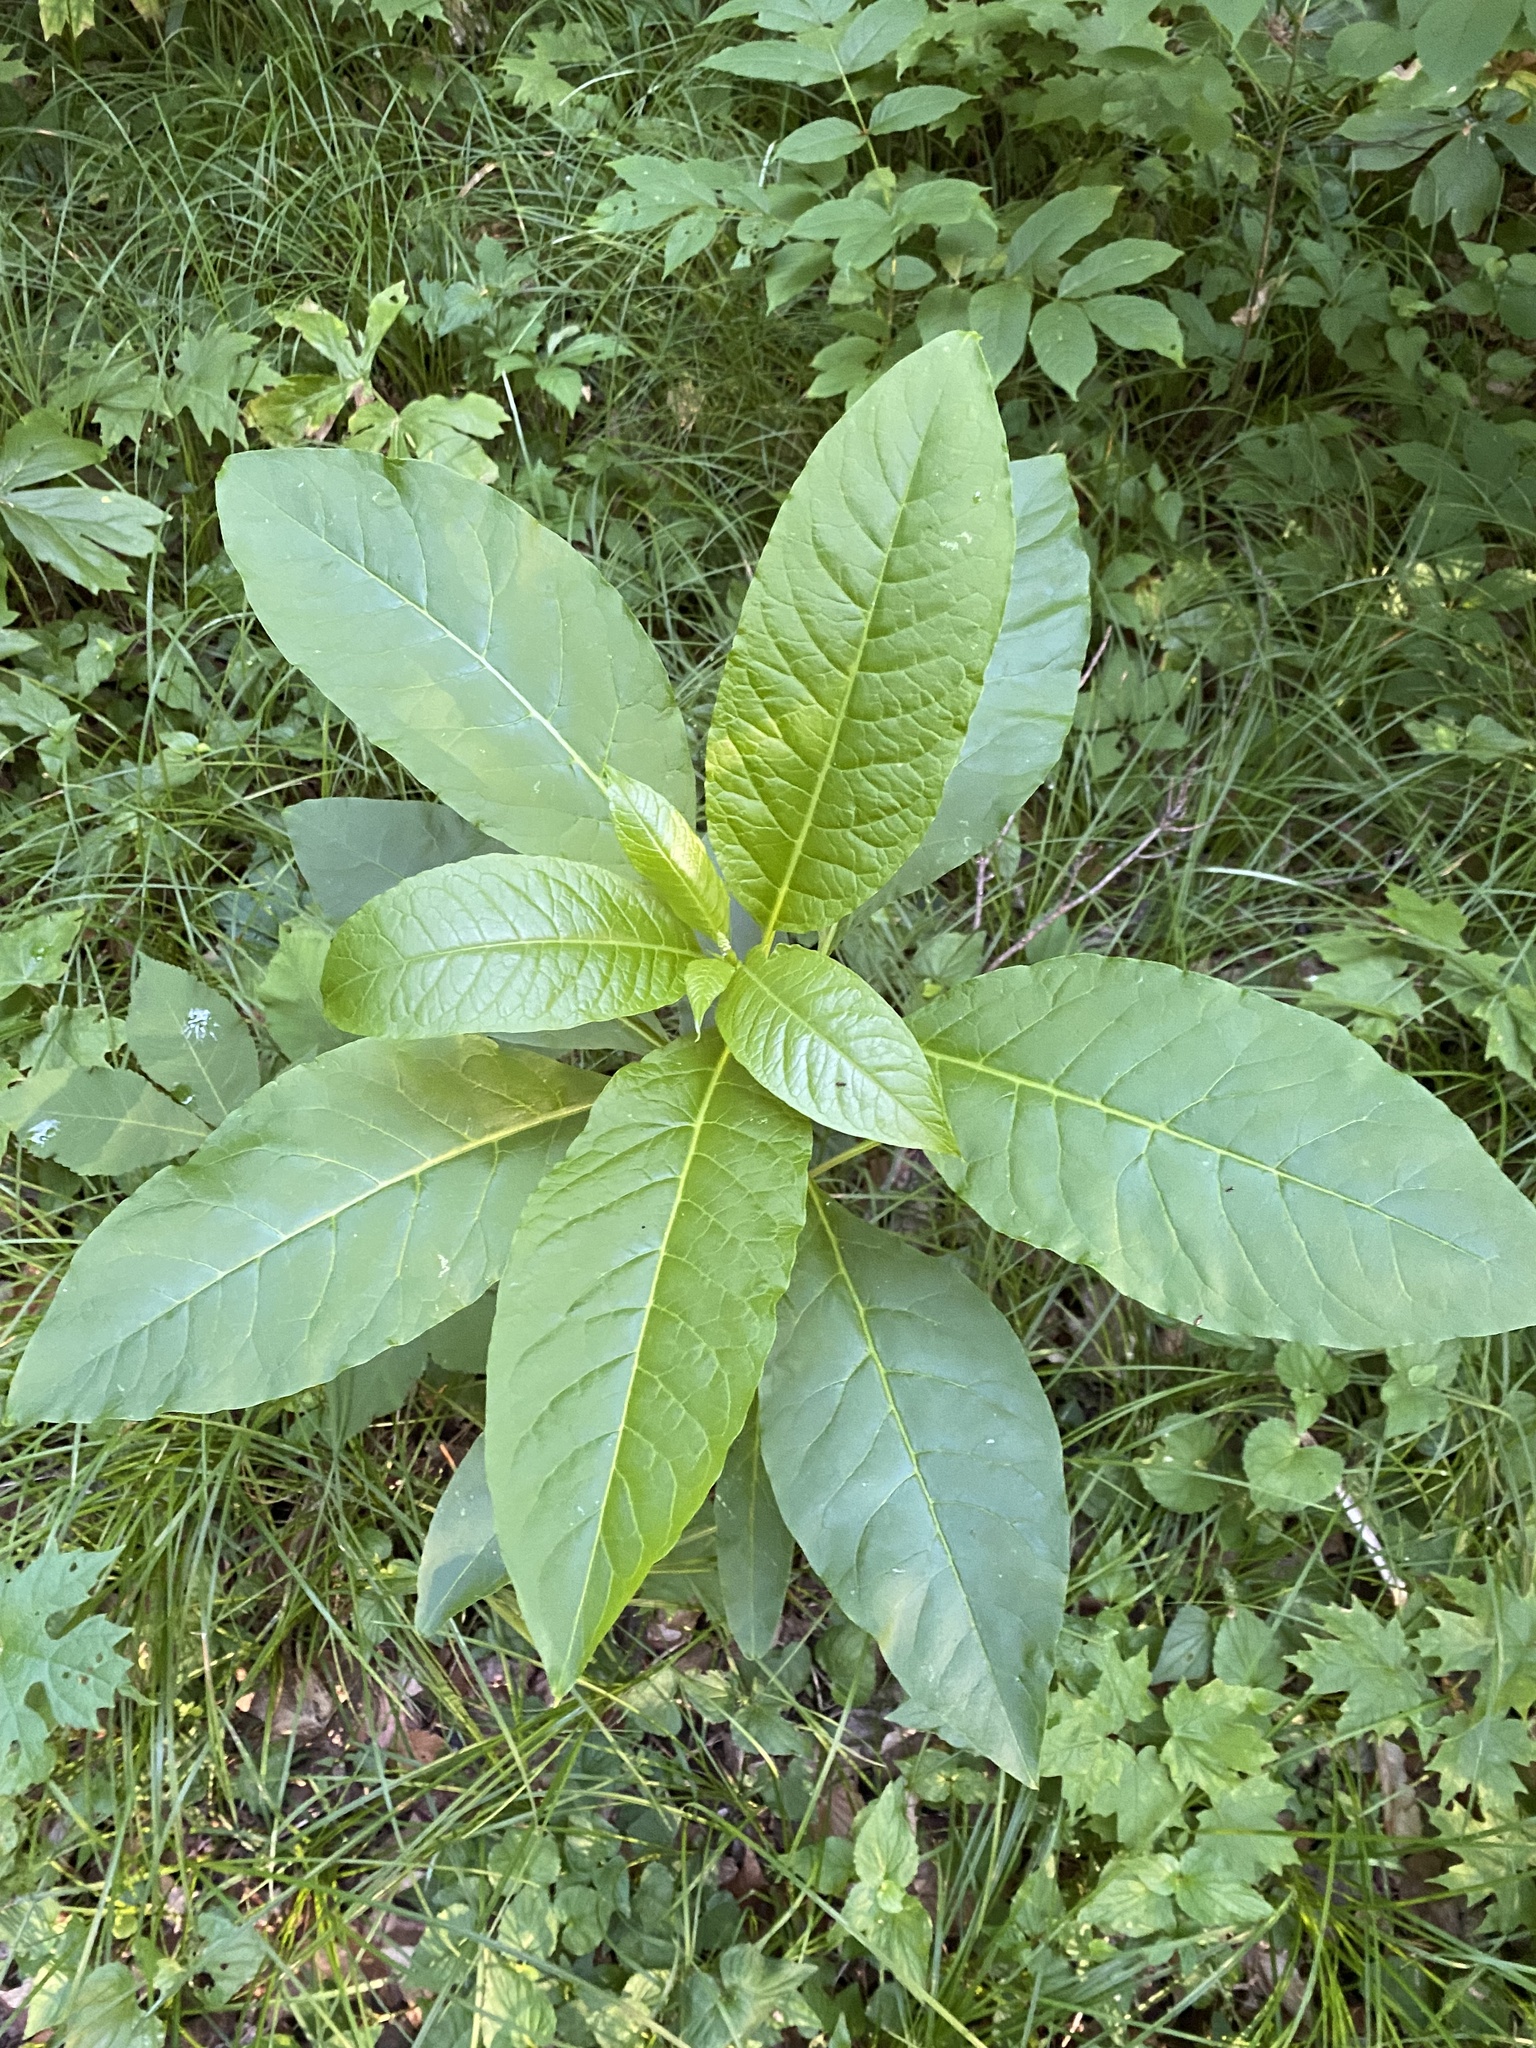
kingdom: Plantae
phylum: Tracheophyta
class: Magnoliopsida
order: Caryophyllales
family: Phytolaccaceae
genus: Phytolacca
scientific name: Phytolacca americana
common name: American pokeweed
